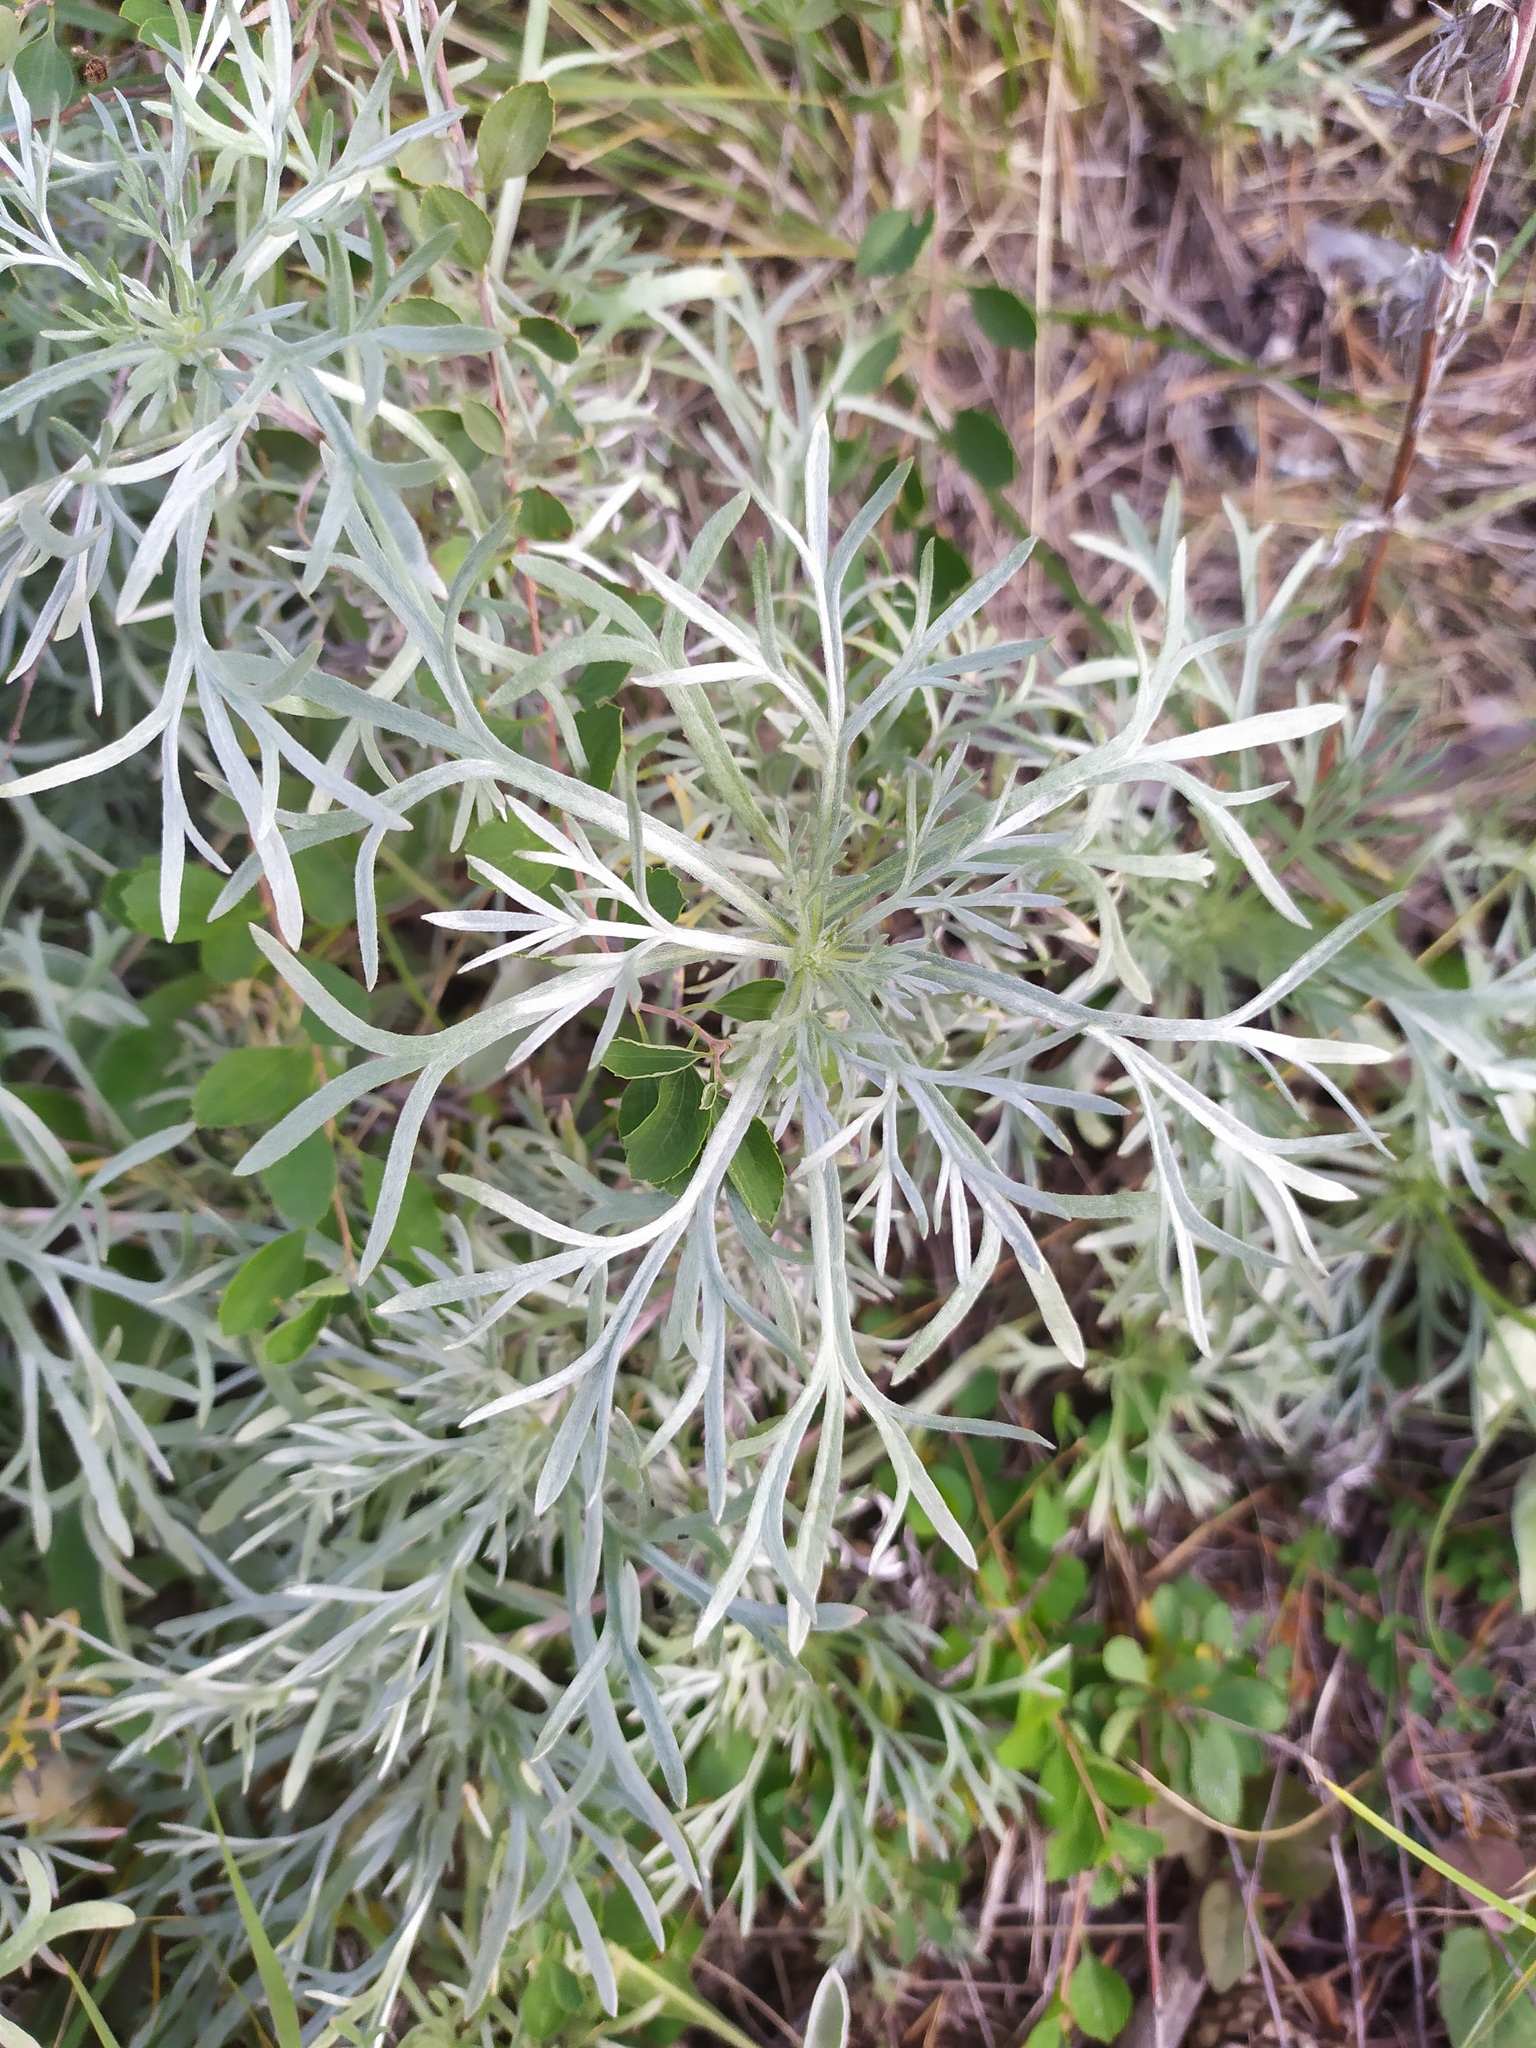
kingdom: Plantae
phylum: Tracheophyta
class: Magnoliopsida
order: Asterales
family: Asteraceae
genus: Artemisia
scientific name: Artemisia sericea
